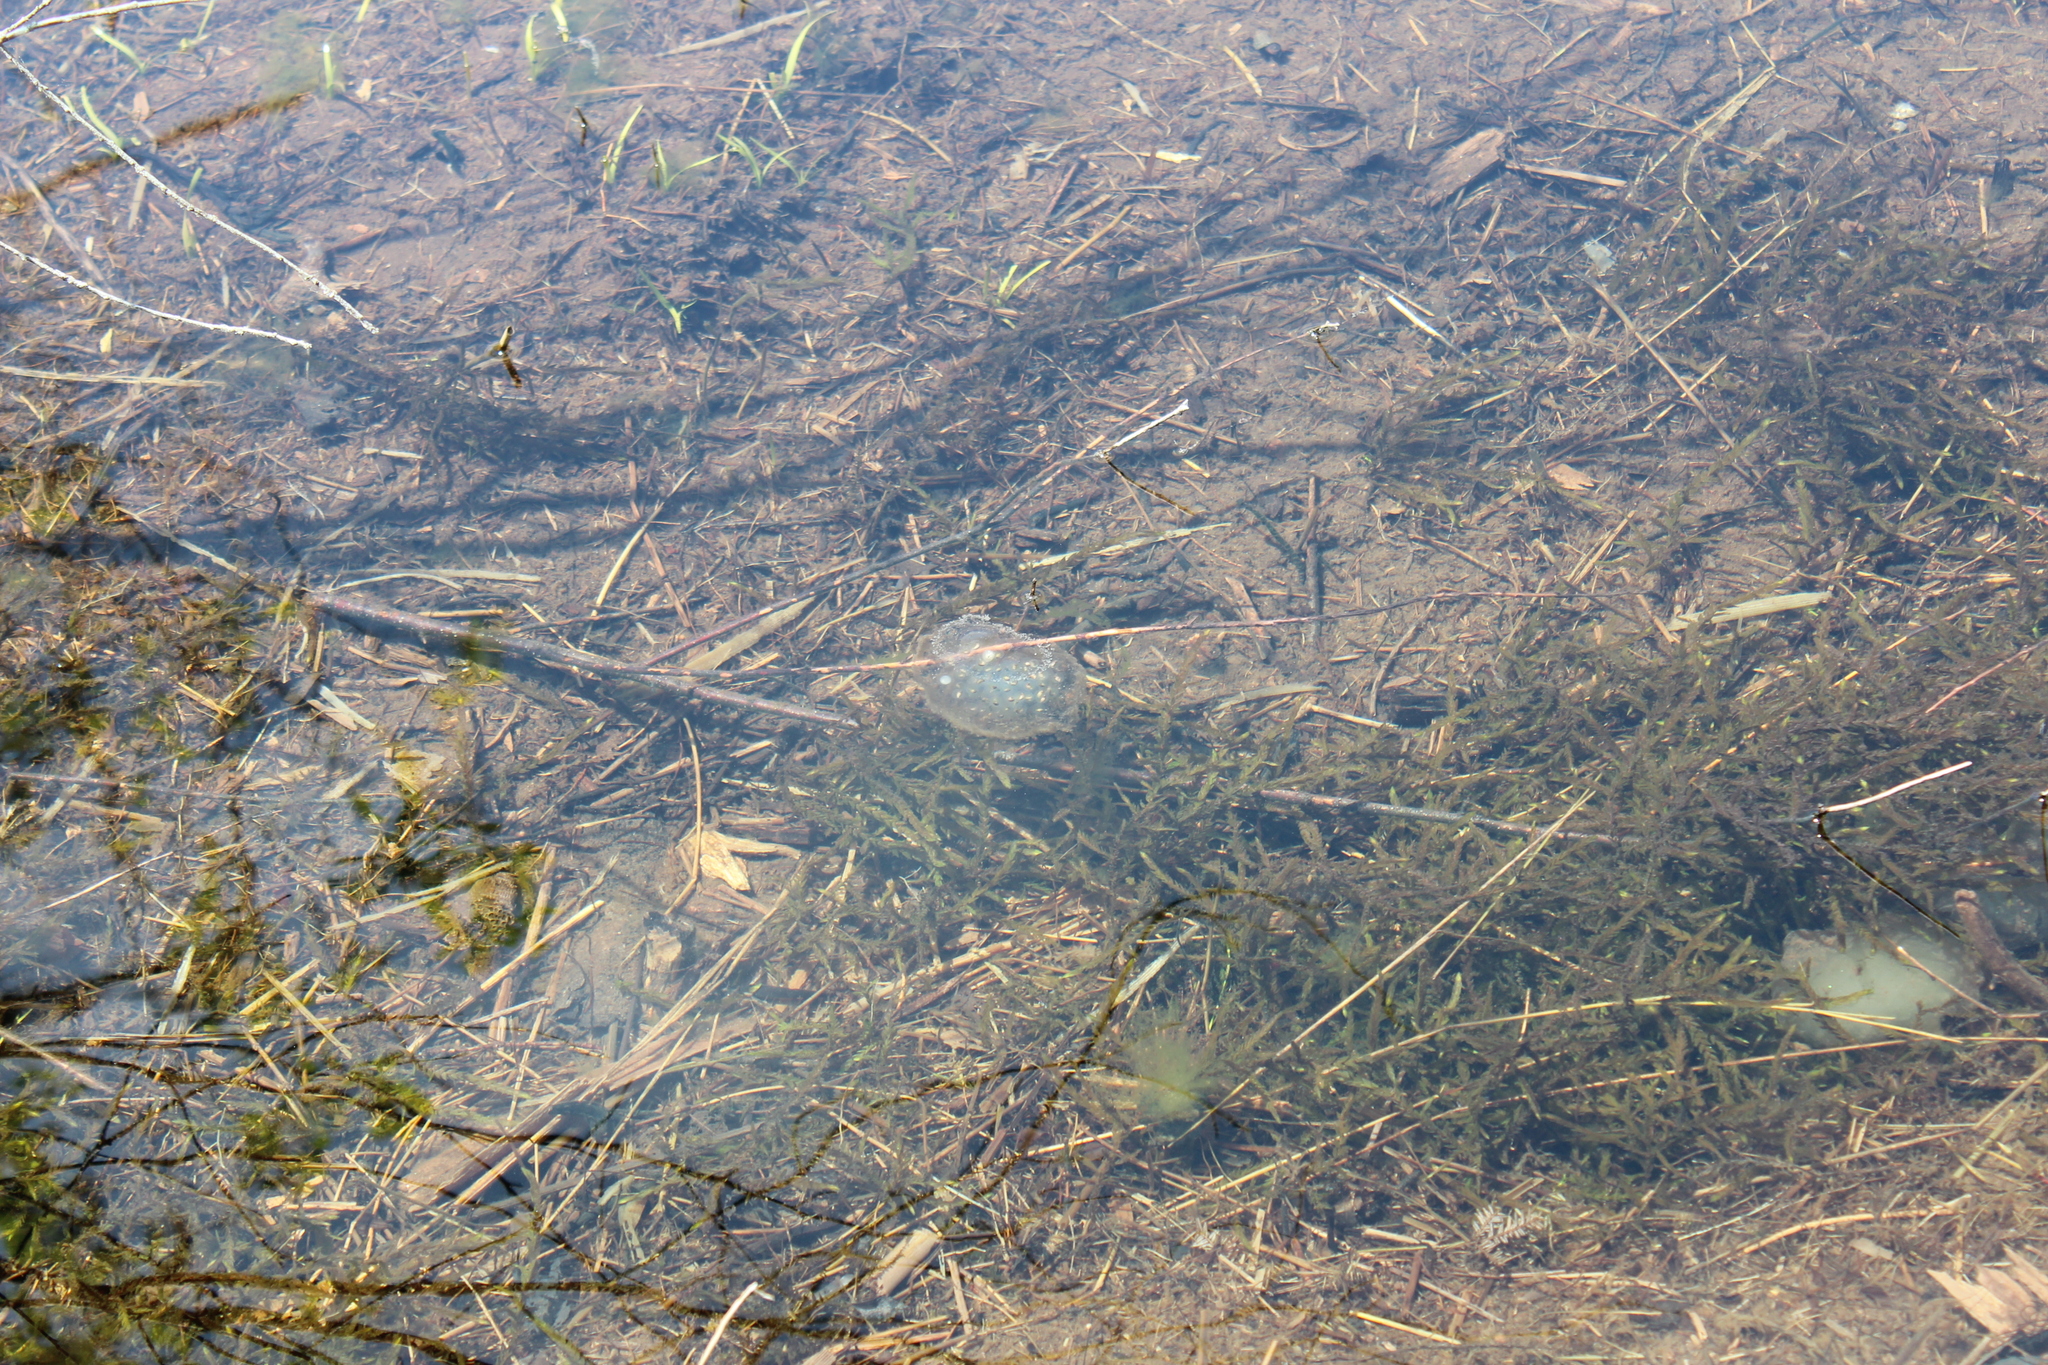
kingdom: Animalia
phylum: Chordata
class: Amphibia
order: Caudata
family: Ambystomatidae
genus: Ambystoma
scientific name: Ambystoma maculatum
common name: Spotted salamander
